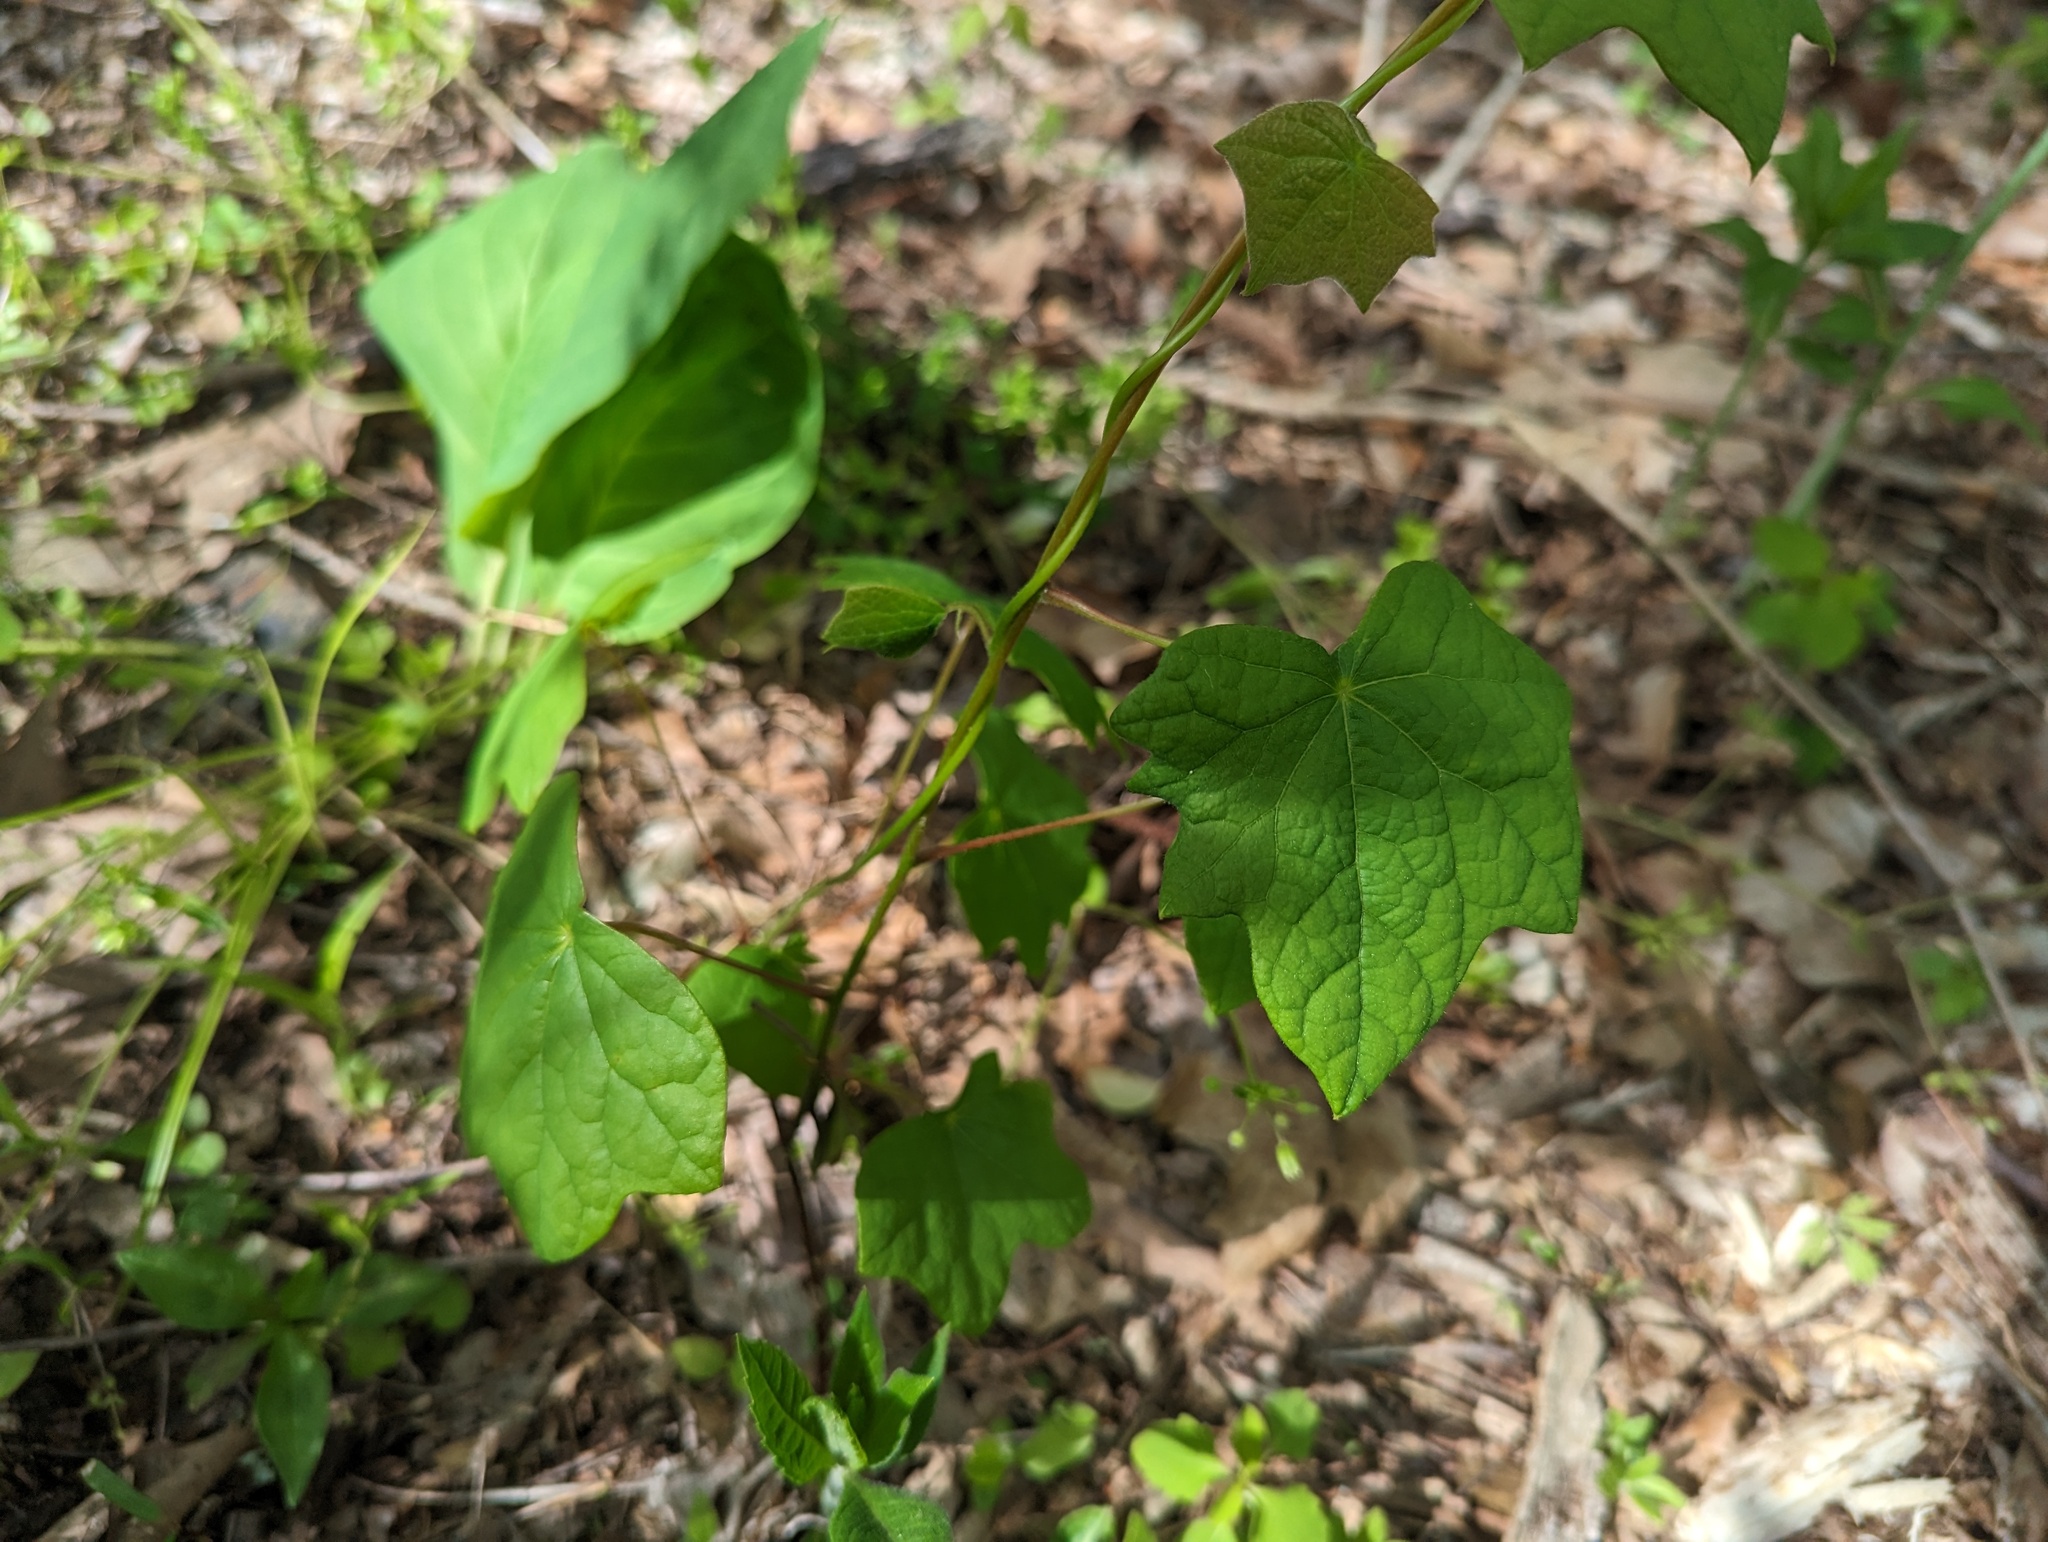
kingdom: Plantae
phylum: Tracheophyta
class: Magnoliopsida
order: Ranunculales
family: Menispermaceae
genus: Menispermum
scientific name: Menispermum canadense
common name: Moonseed
